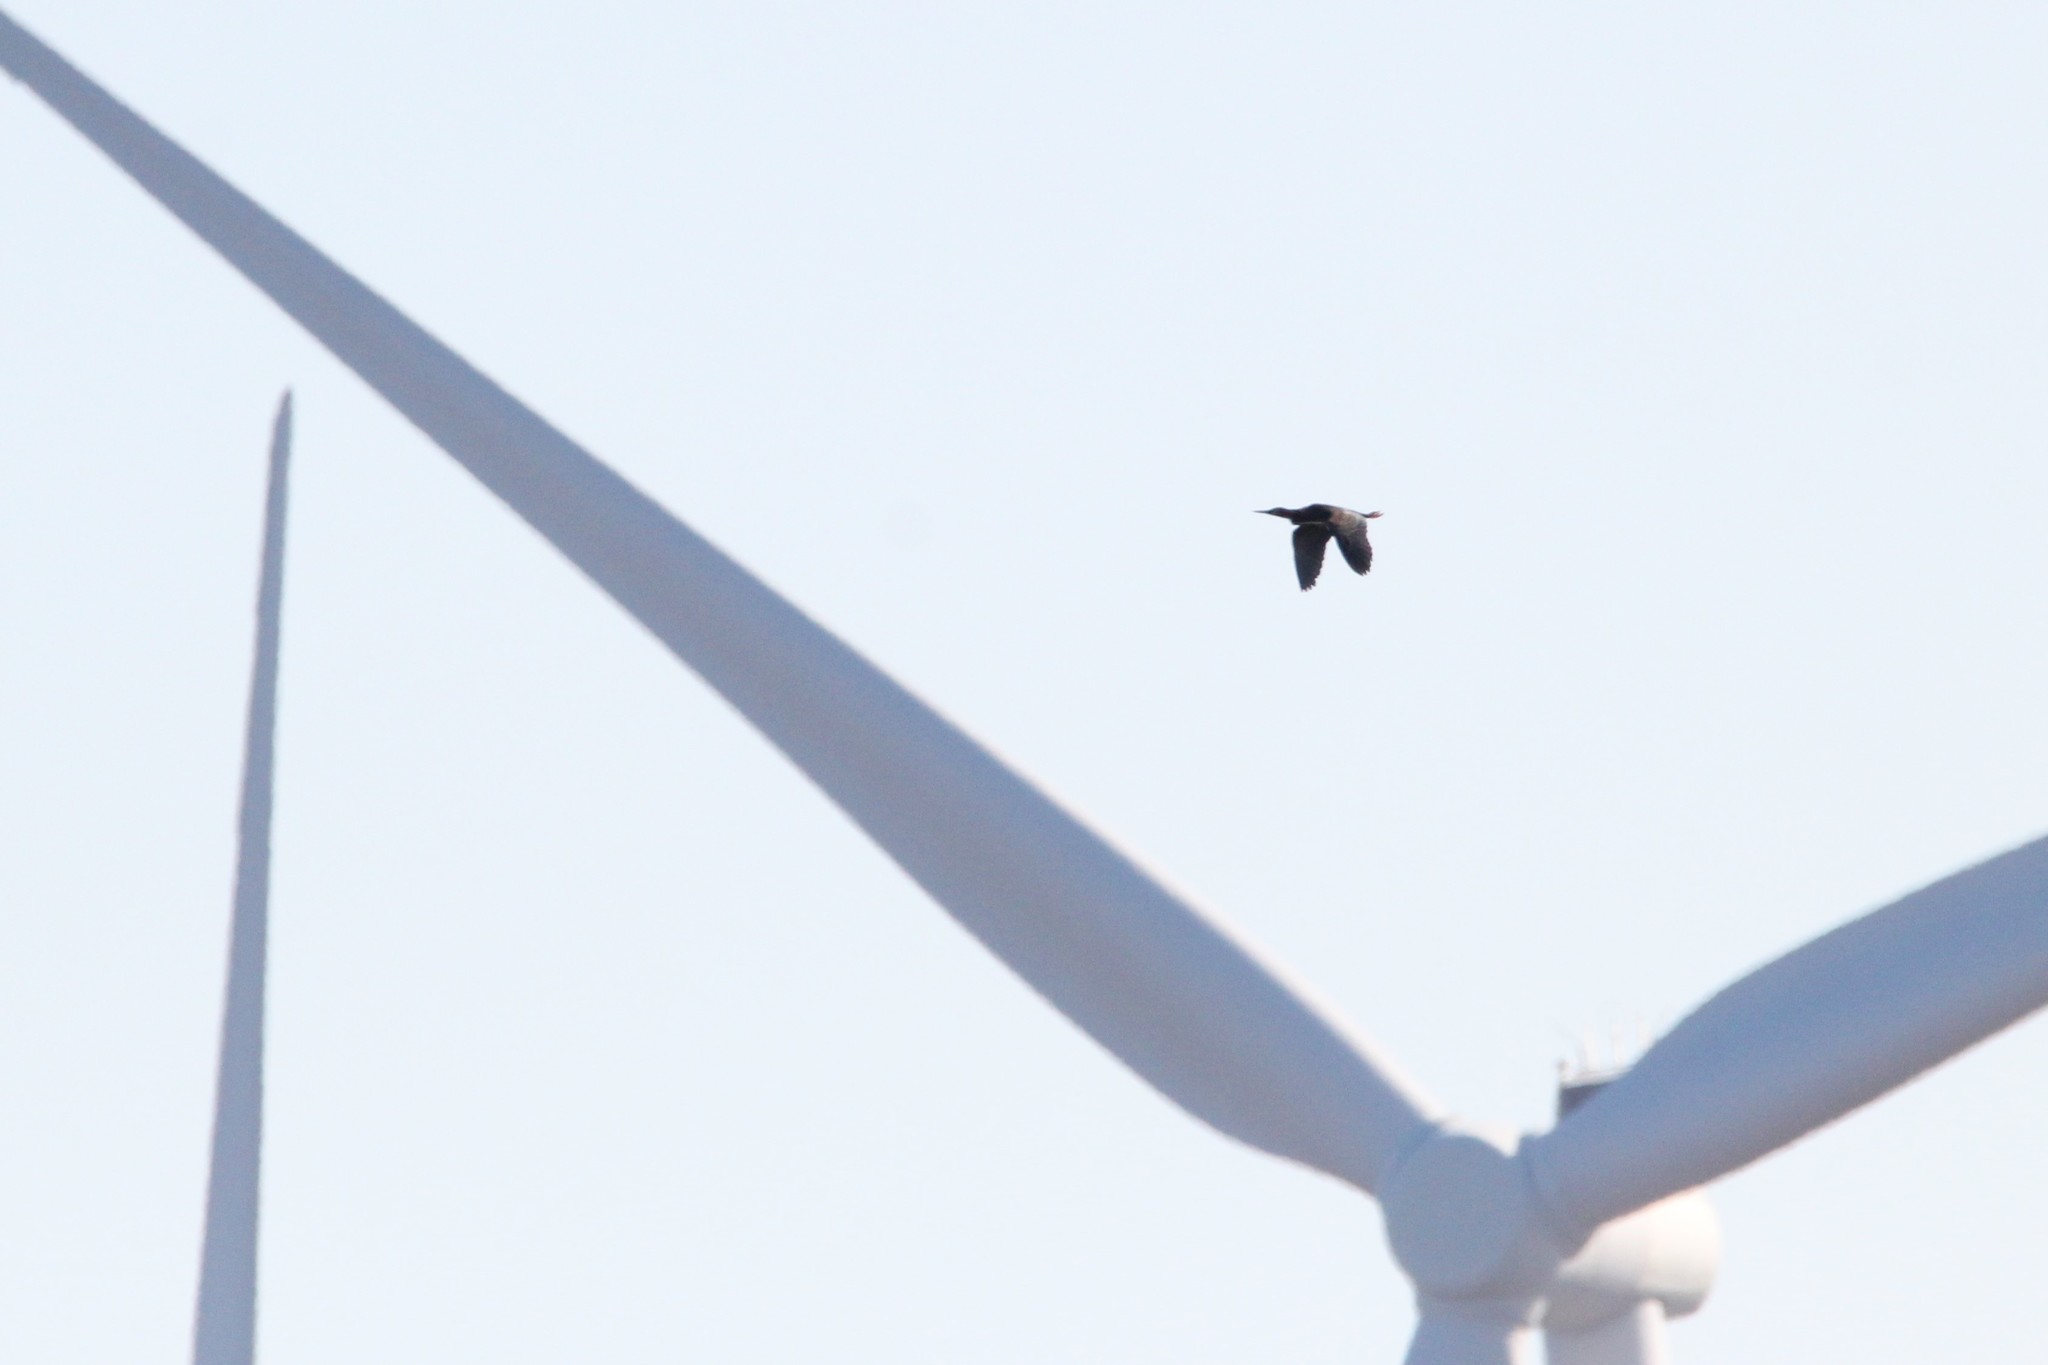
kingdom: Animalia
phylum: Chordata
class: Aves
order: Pelecaniformes
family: Ardeidae
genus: Butorides
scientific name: Butorides virescens
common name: Green heron
